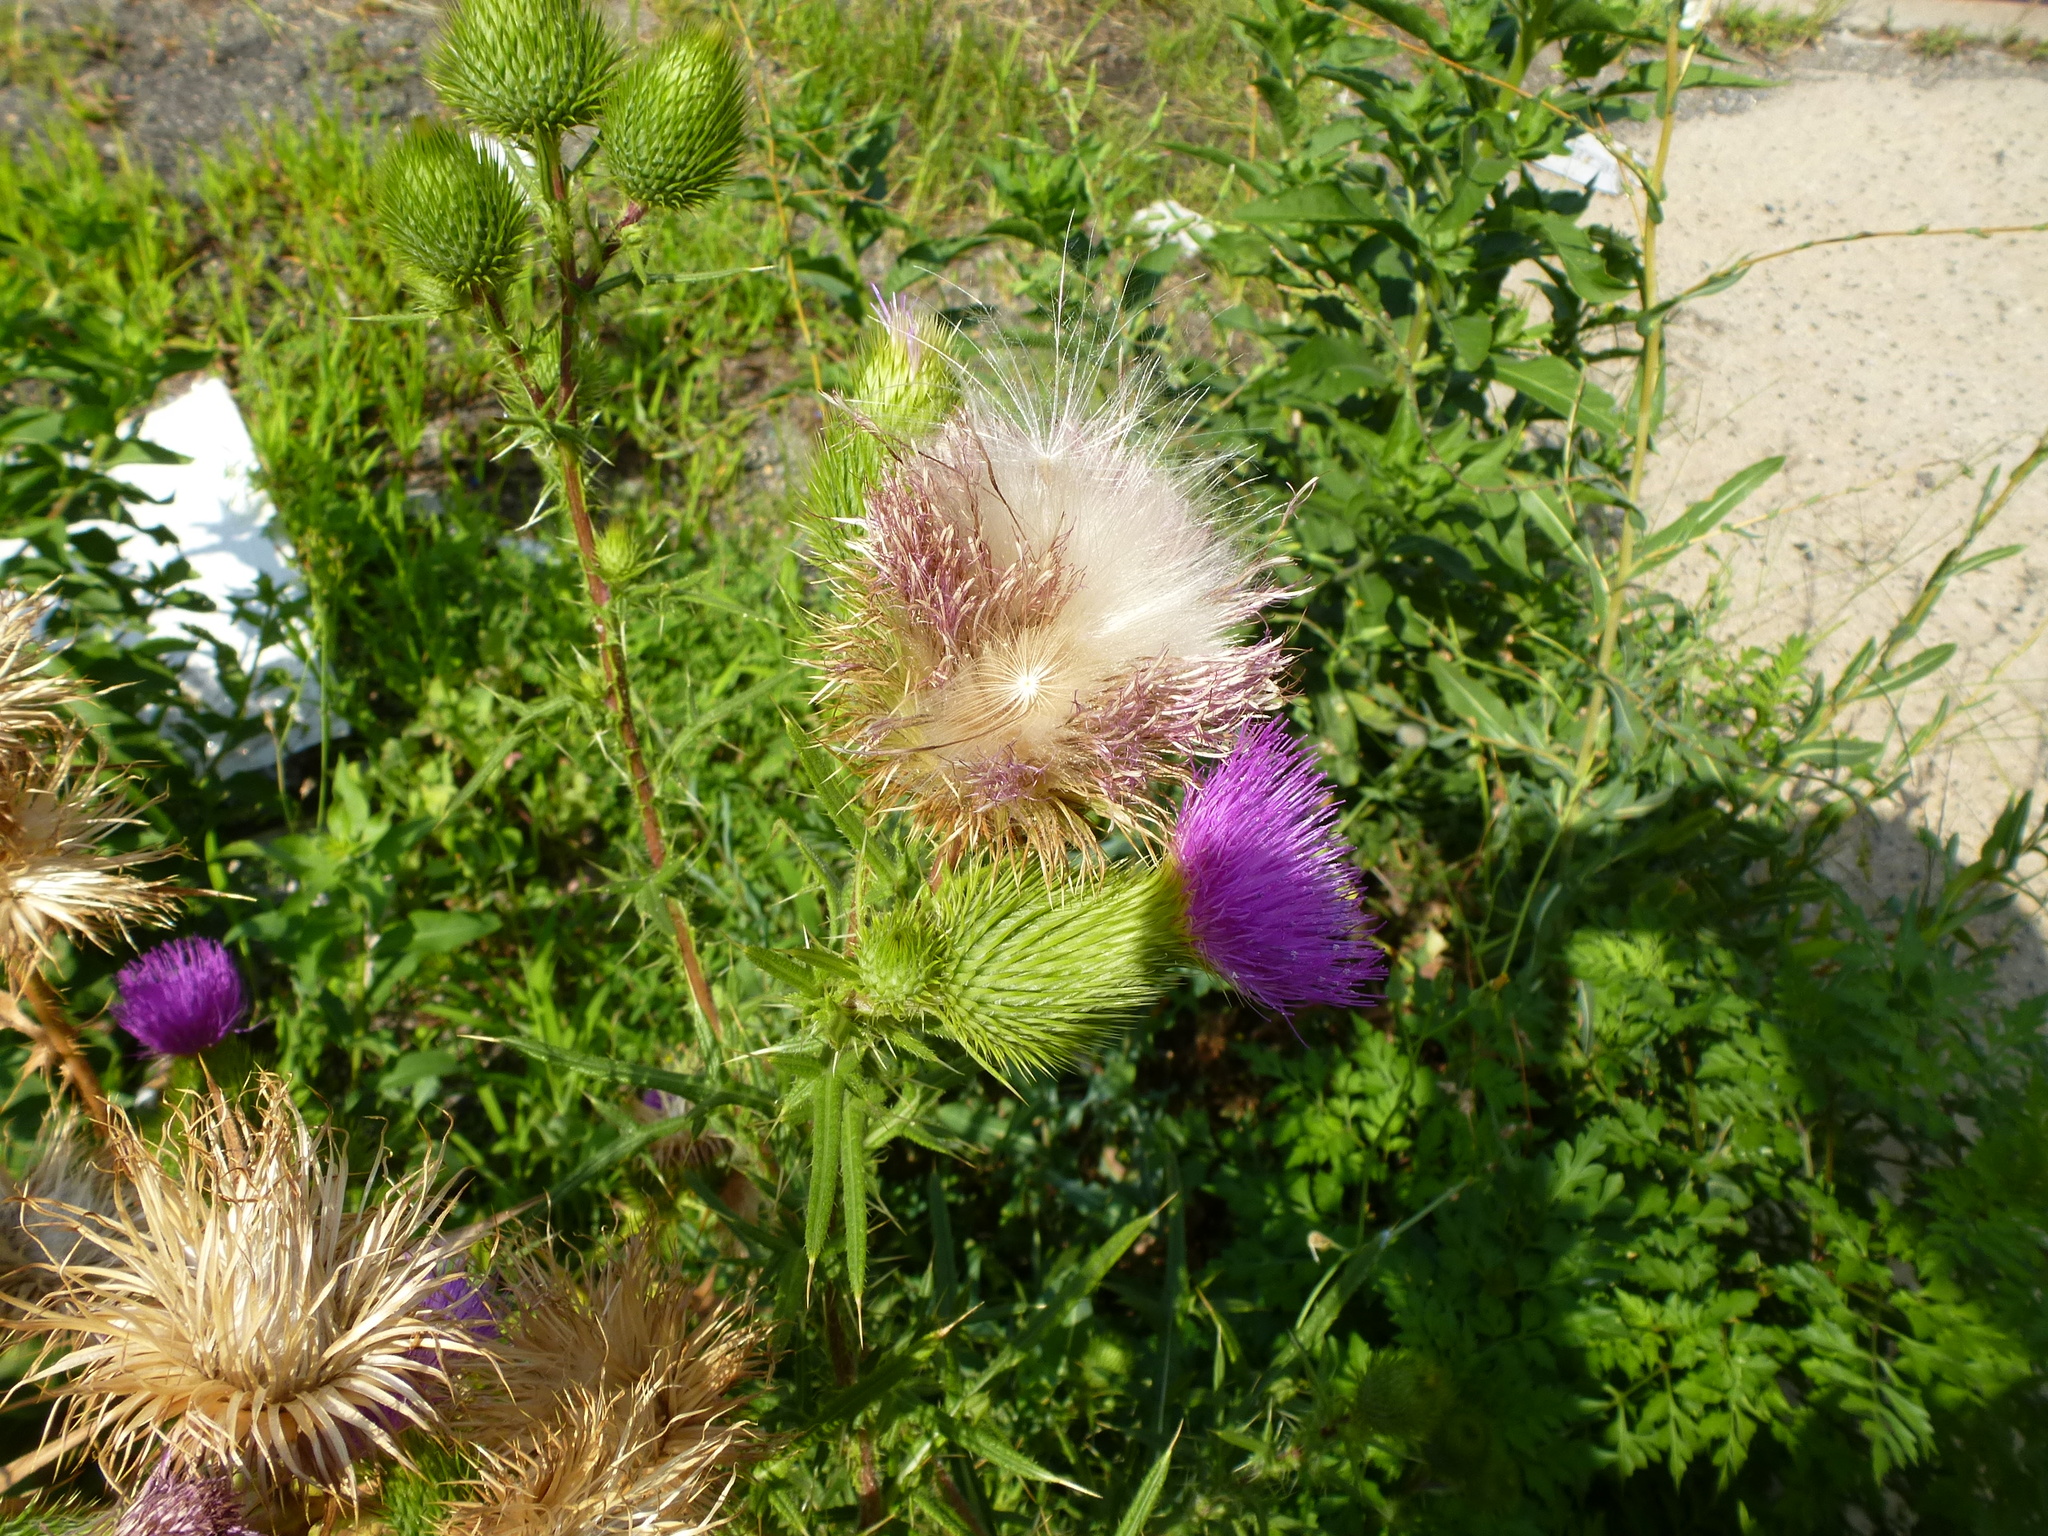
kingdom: Plantae
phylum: Tracheophyta
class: Magnoliopsida
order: Asterales
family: Asteraceae
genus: Cirsium
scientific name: Cirsium vulgare
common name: Bull thistle
